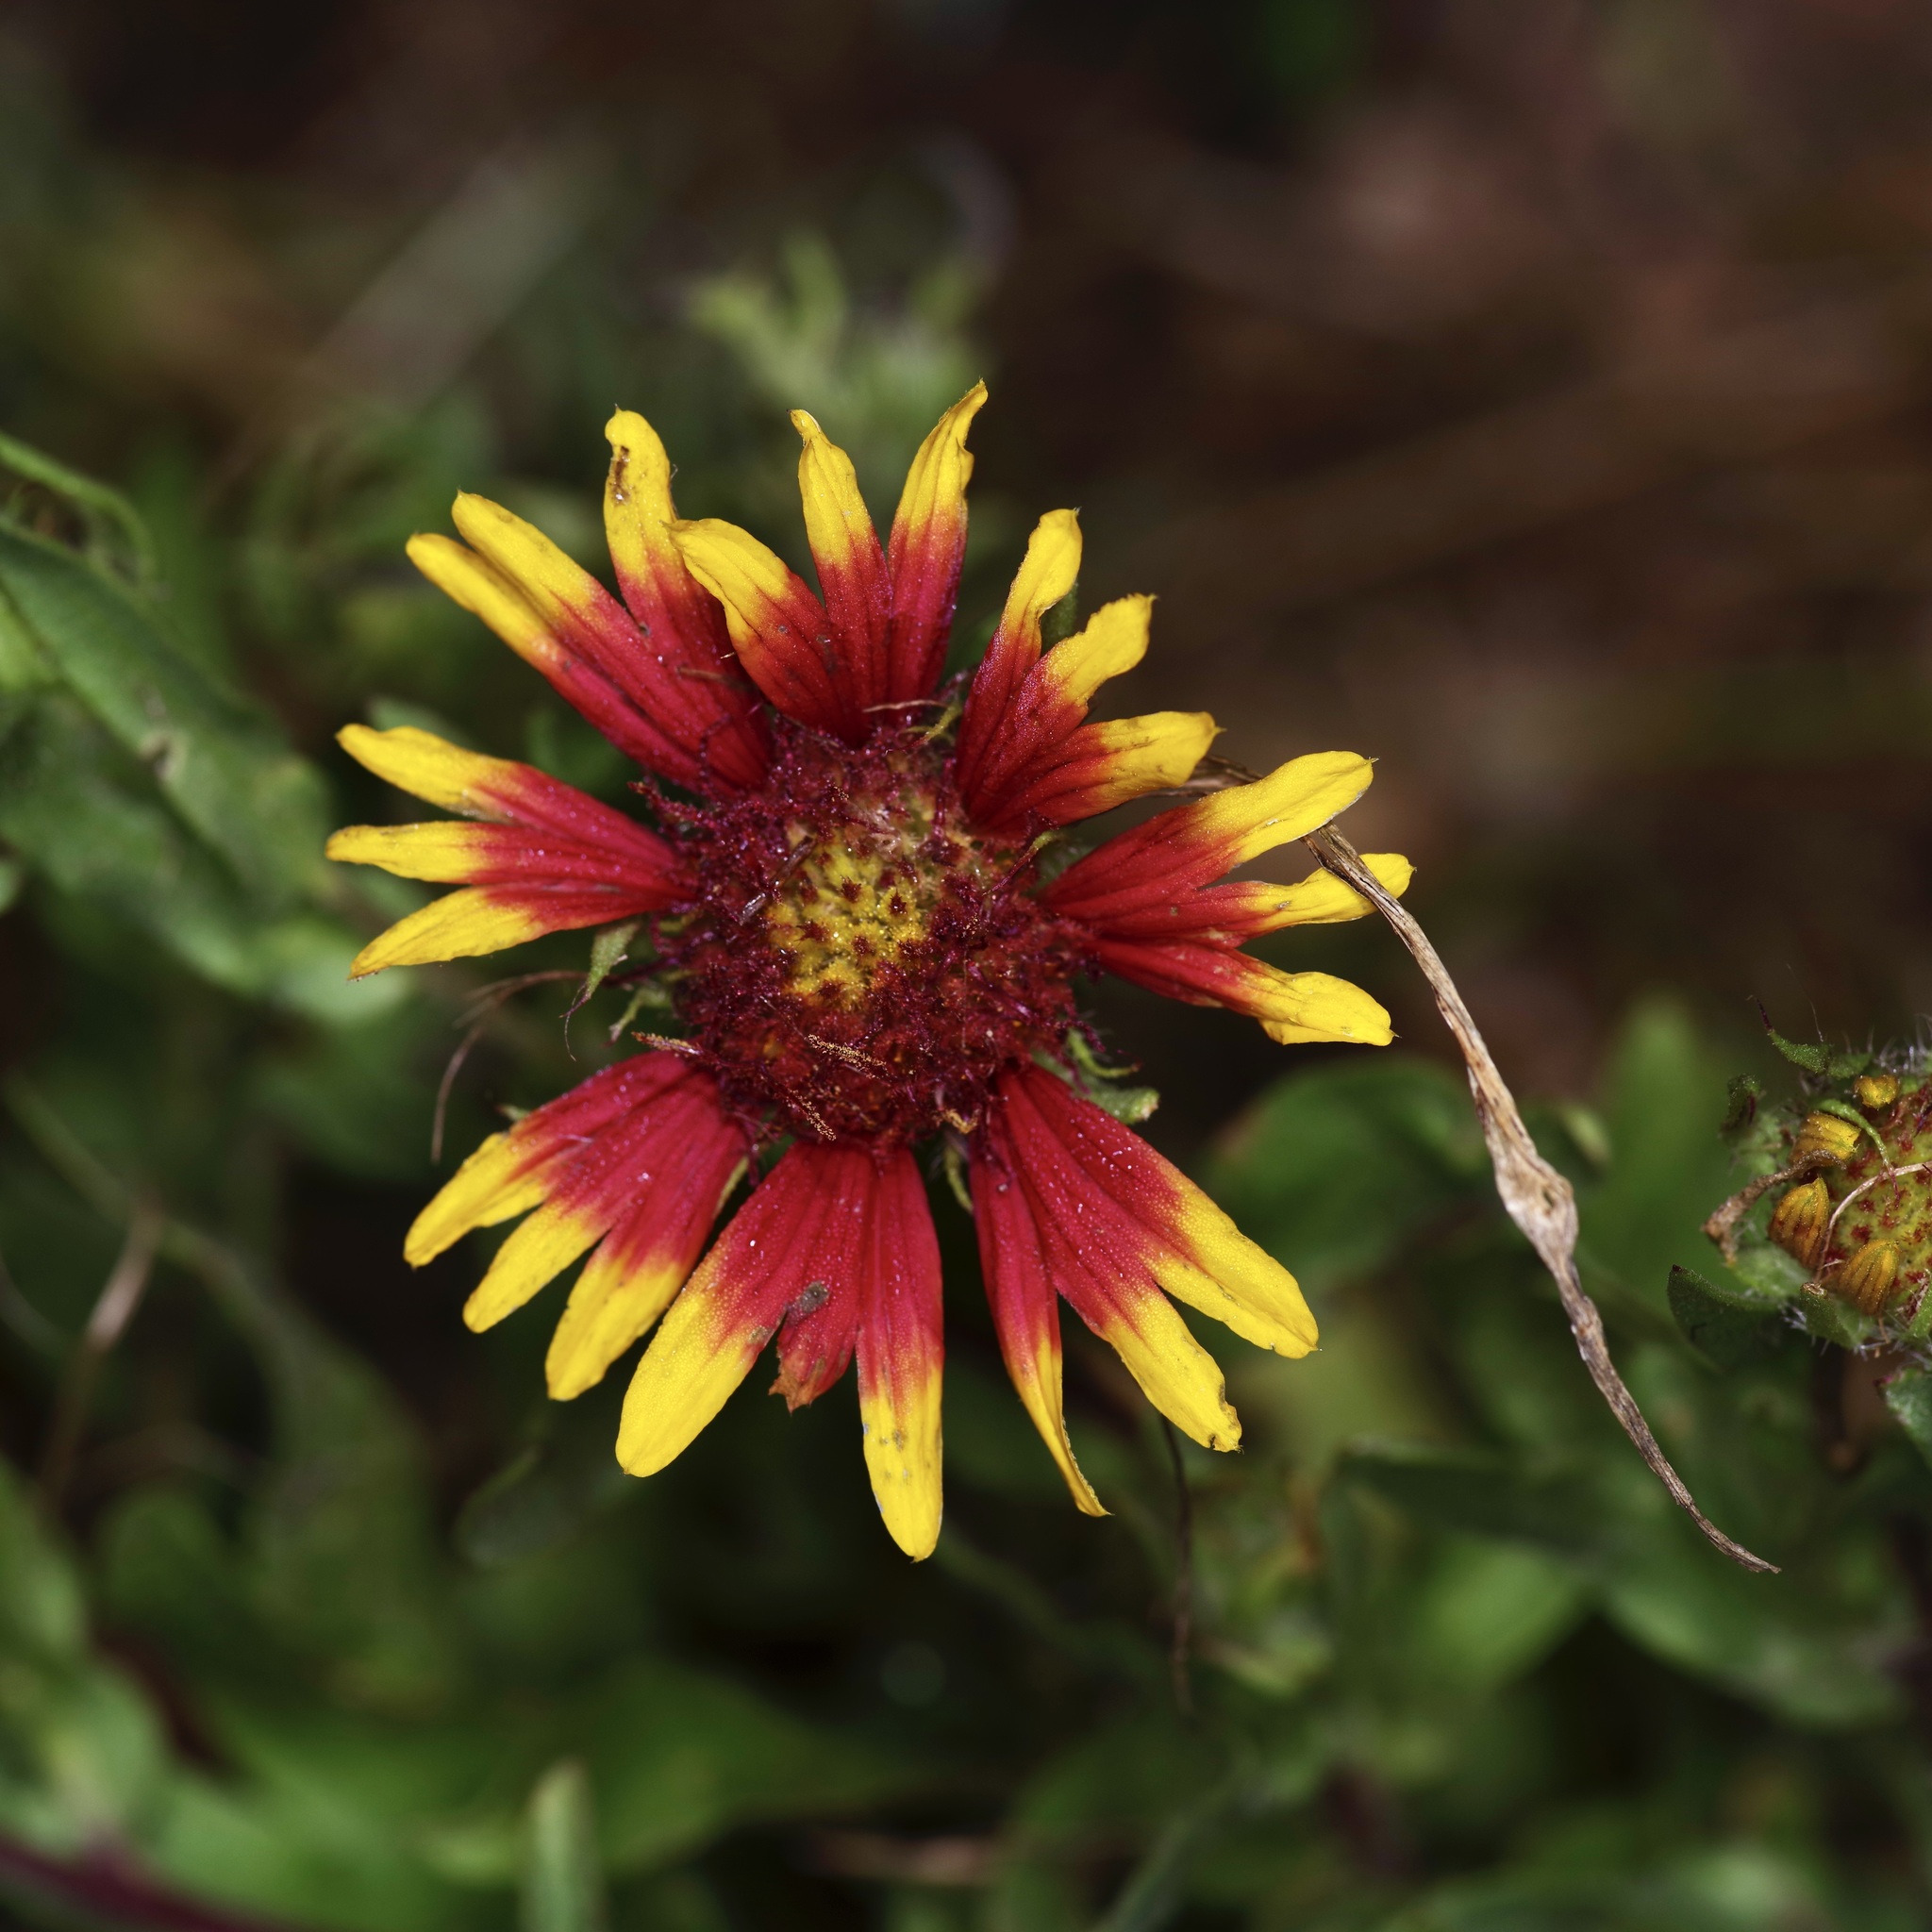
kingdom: Plantae
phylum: Tracheophyta
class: Magnoliopsida
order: Asterales
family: Asteraceae
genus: Gaillardia
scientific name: Gaillardia pulchella
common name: Firewheel
